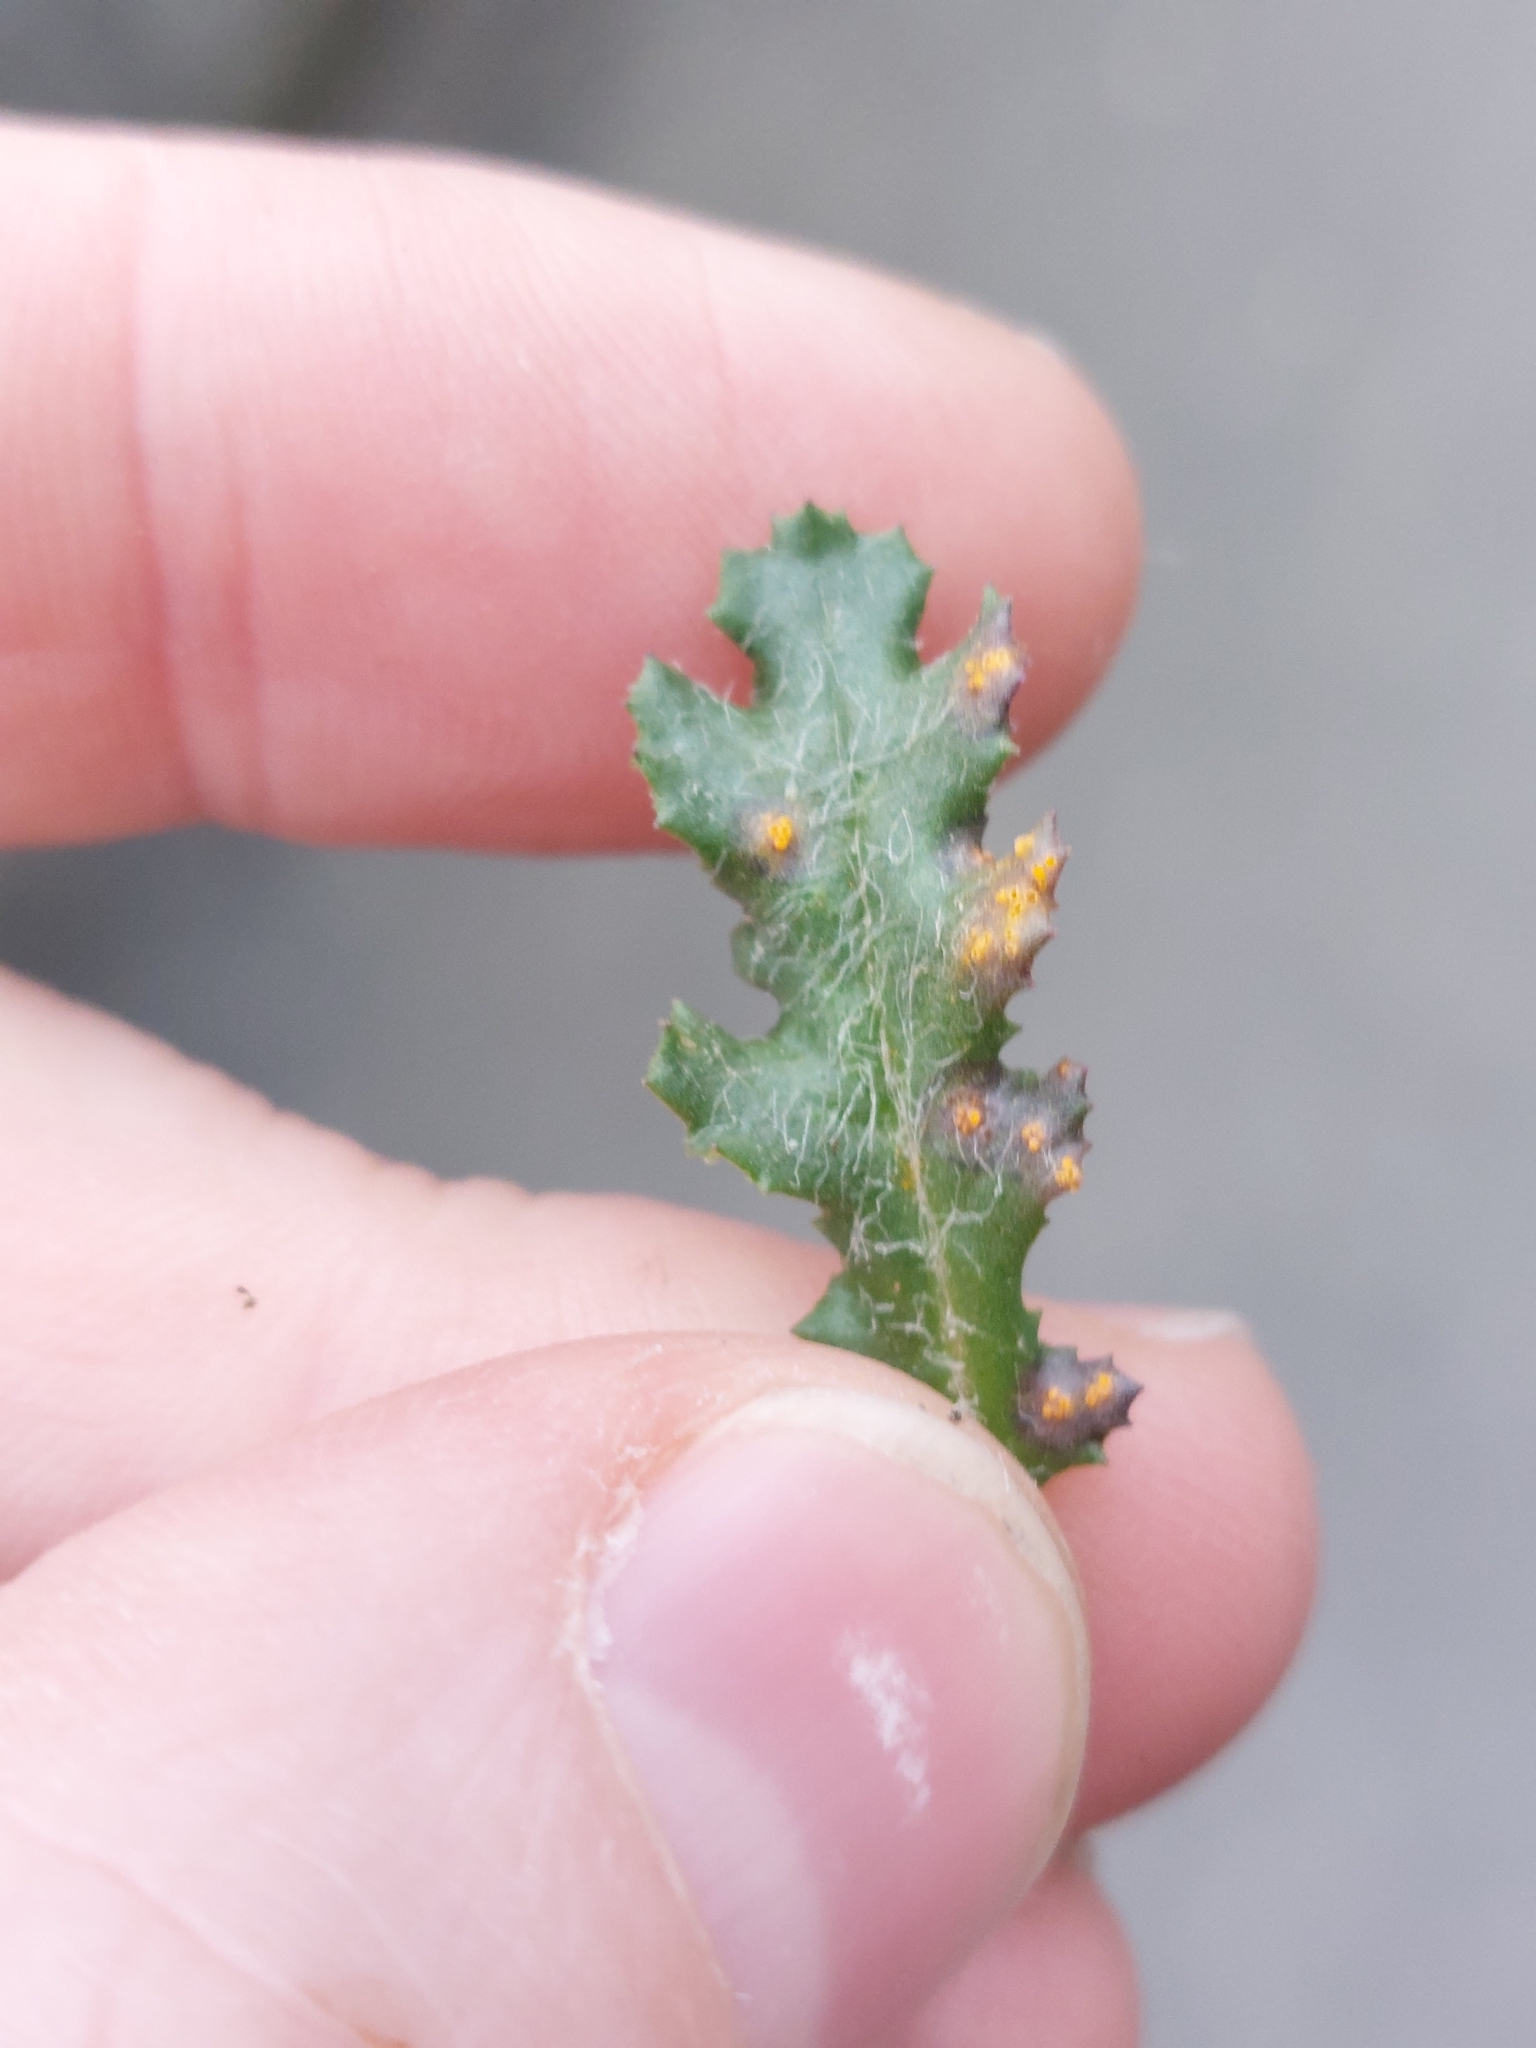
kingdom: Fungi
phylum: Basidiomycota
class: Pucciniomycetes
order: Pucciniales
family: Pucciniaceae
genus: Puccinia
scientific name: Puccinia lagenophorae
